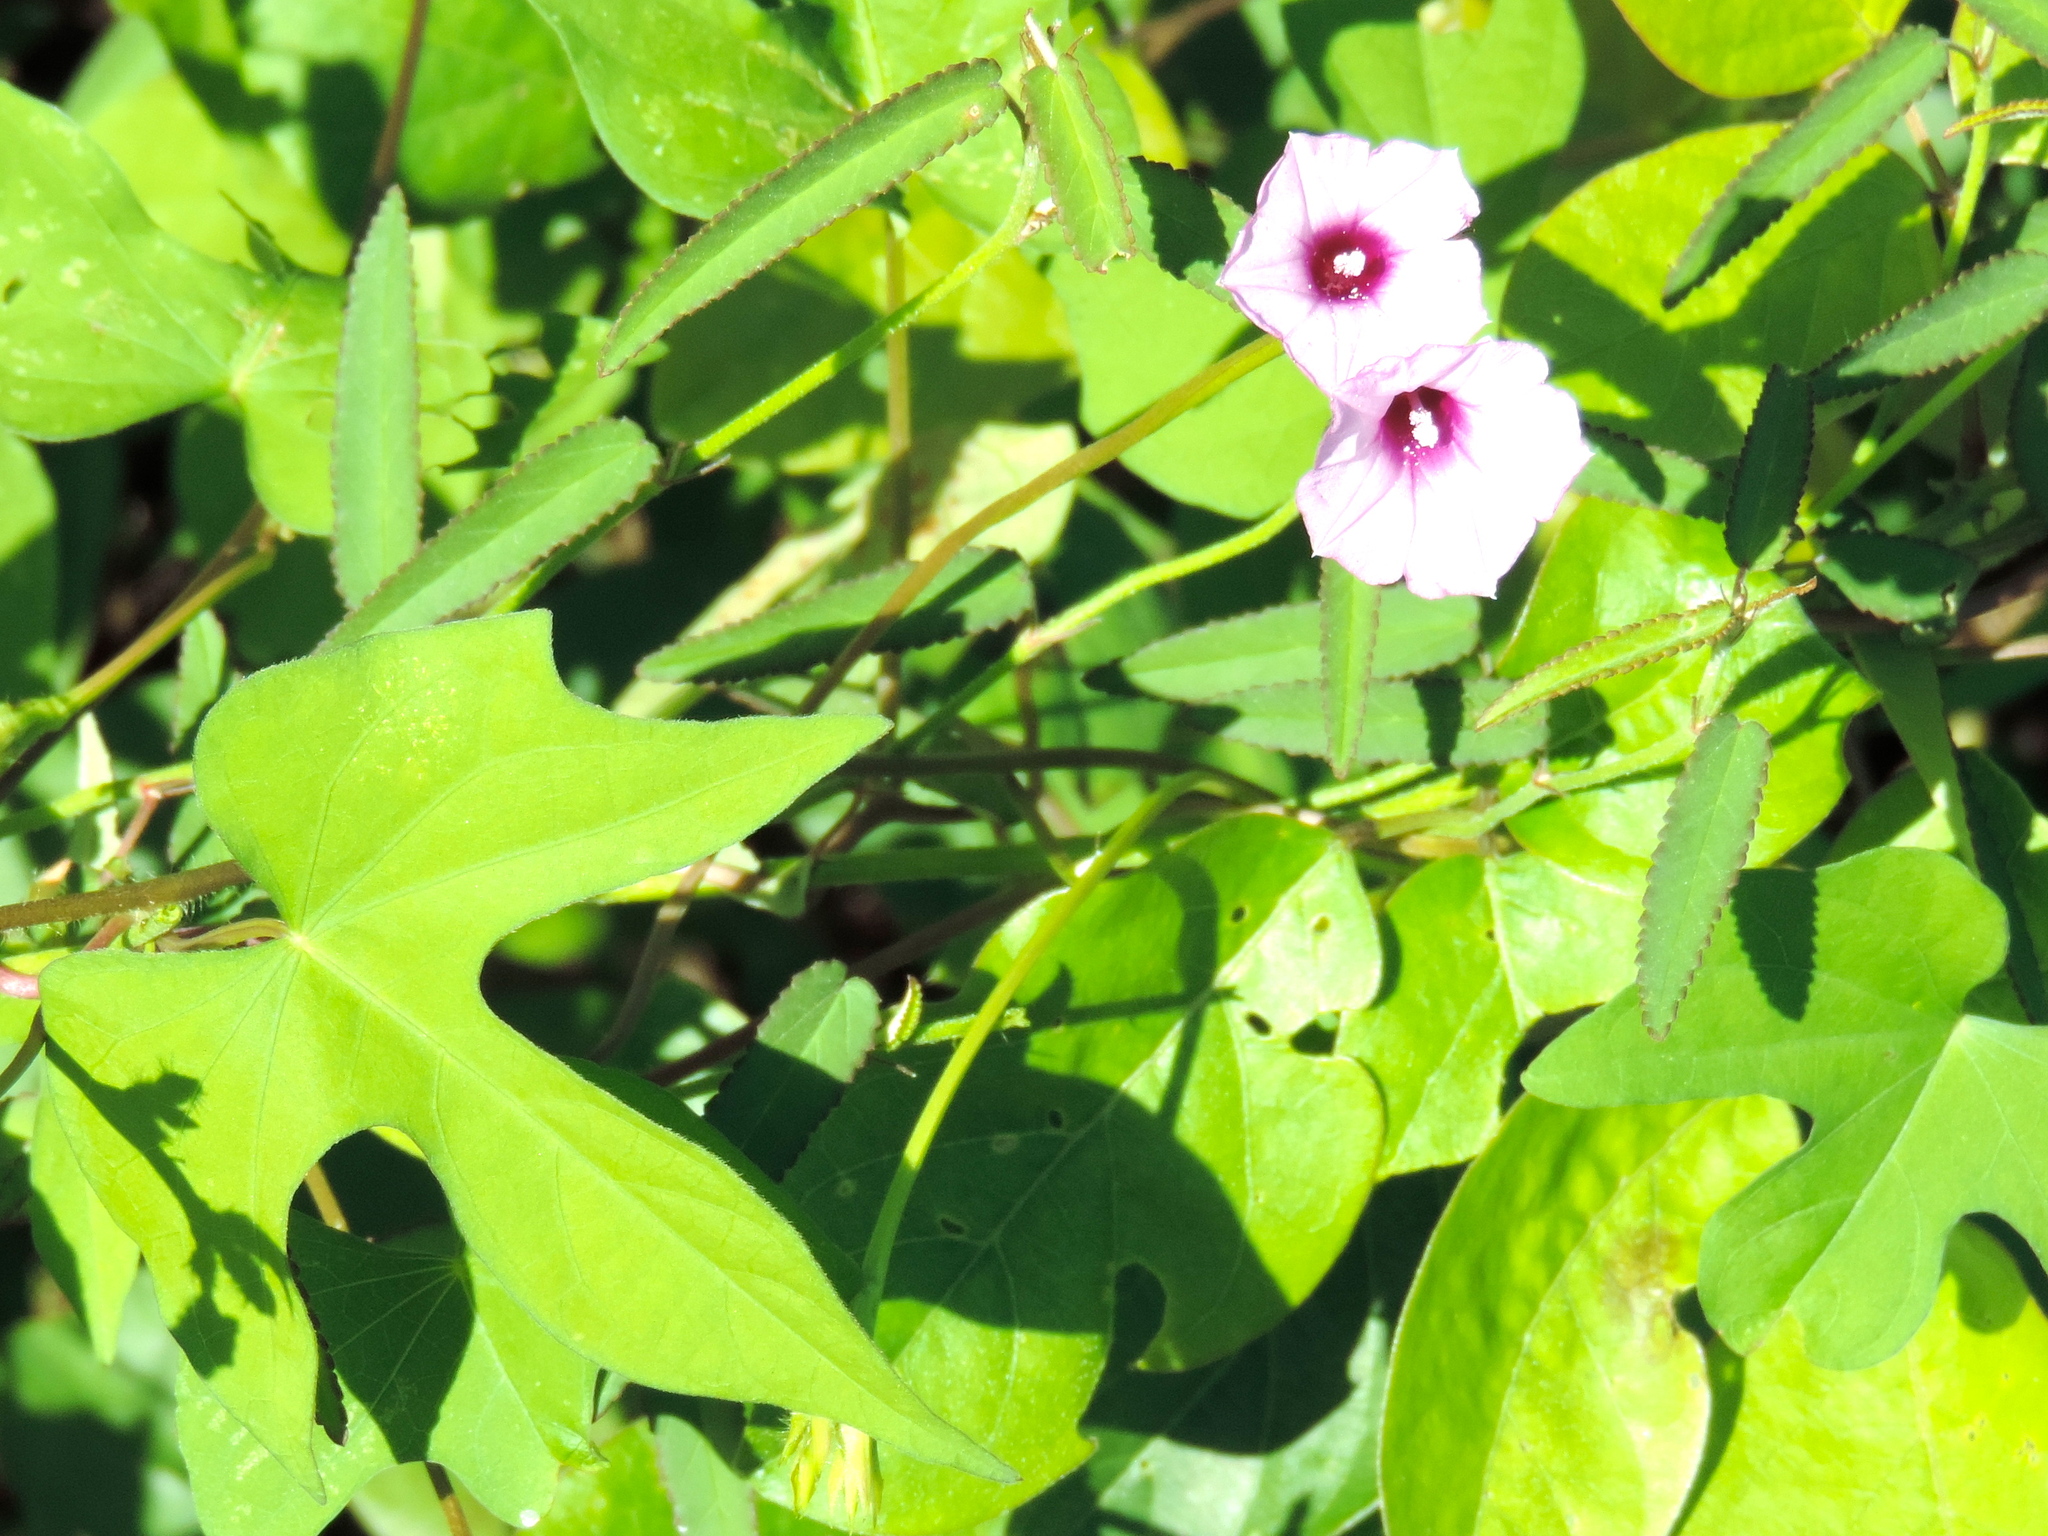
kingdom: Plantae
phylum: Tracheophyta
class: Magnoliopsida
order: Solanales
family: Convolvulaceae
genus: Ipomoea
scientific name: Ipomoea triloba
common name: Little-bell
